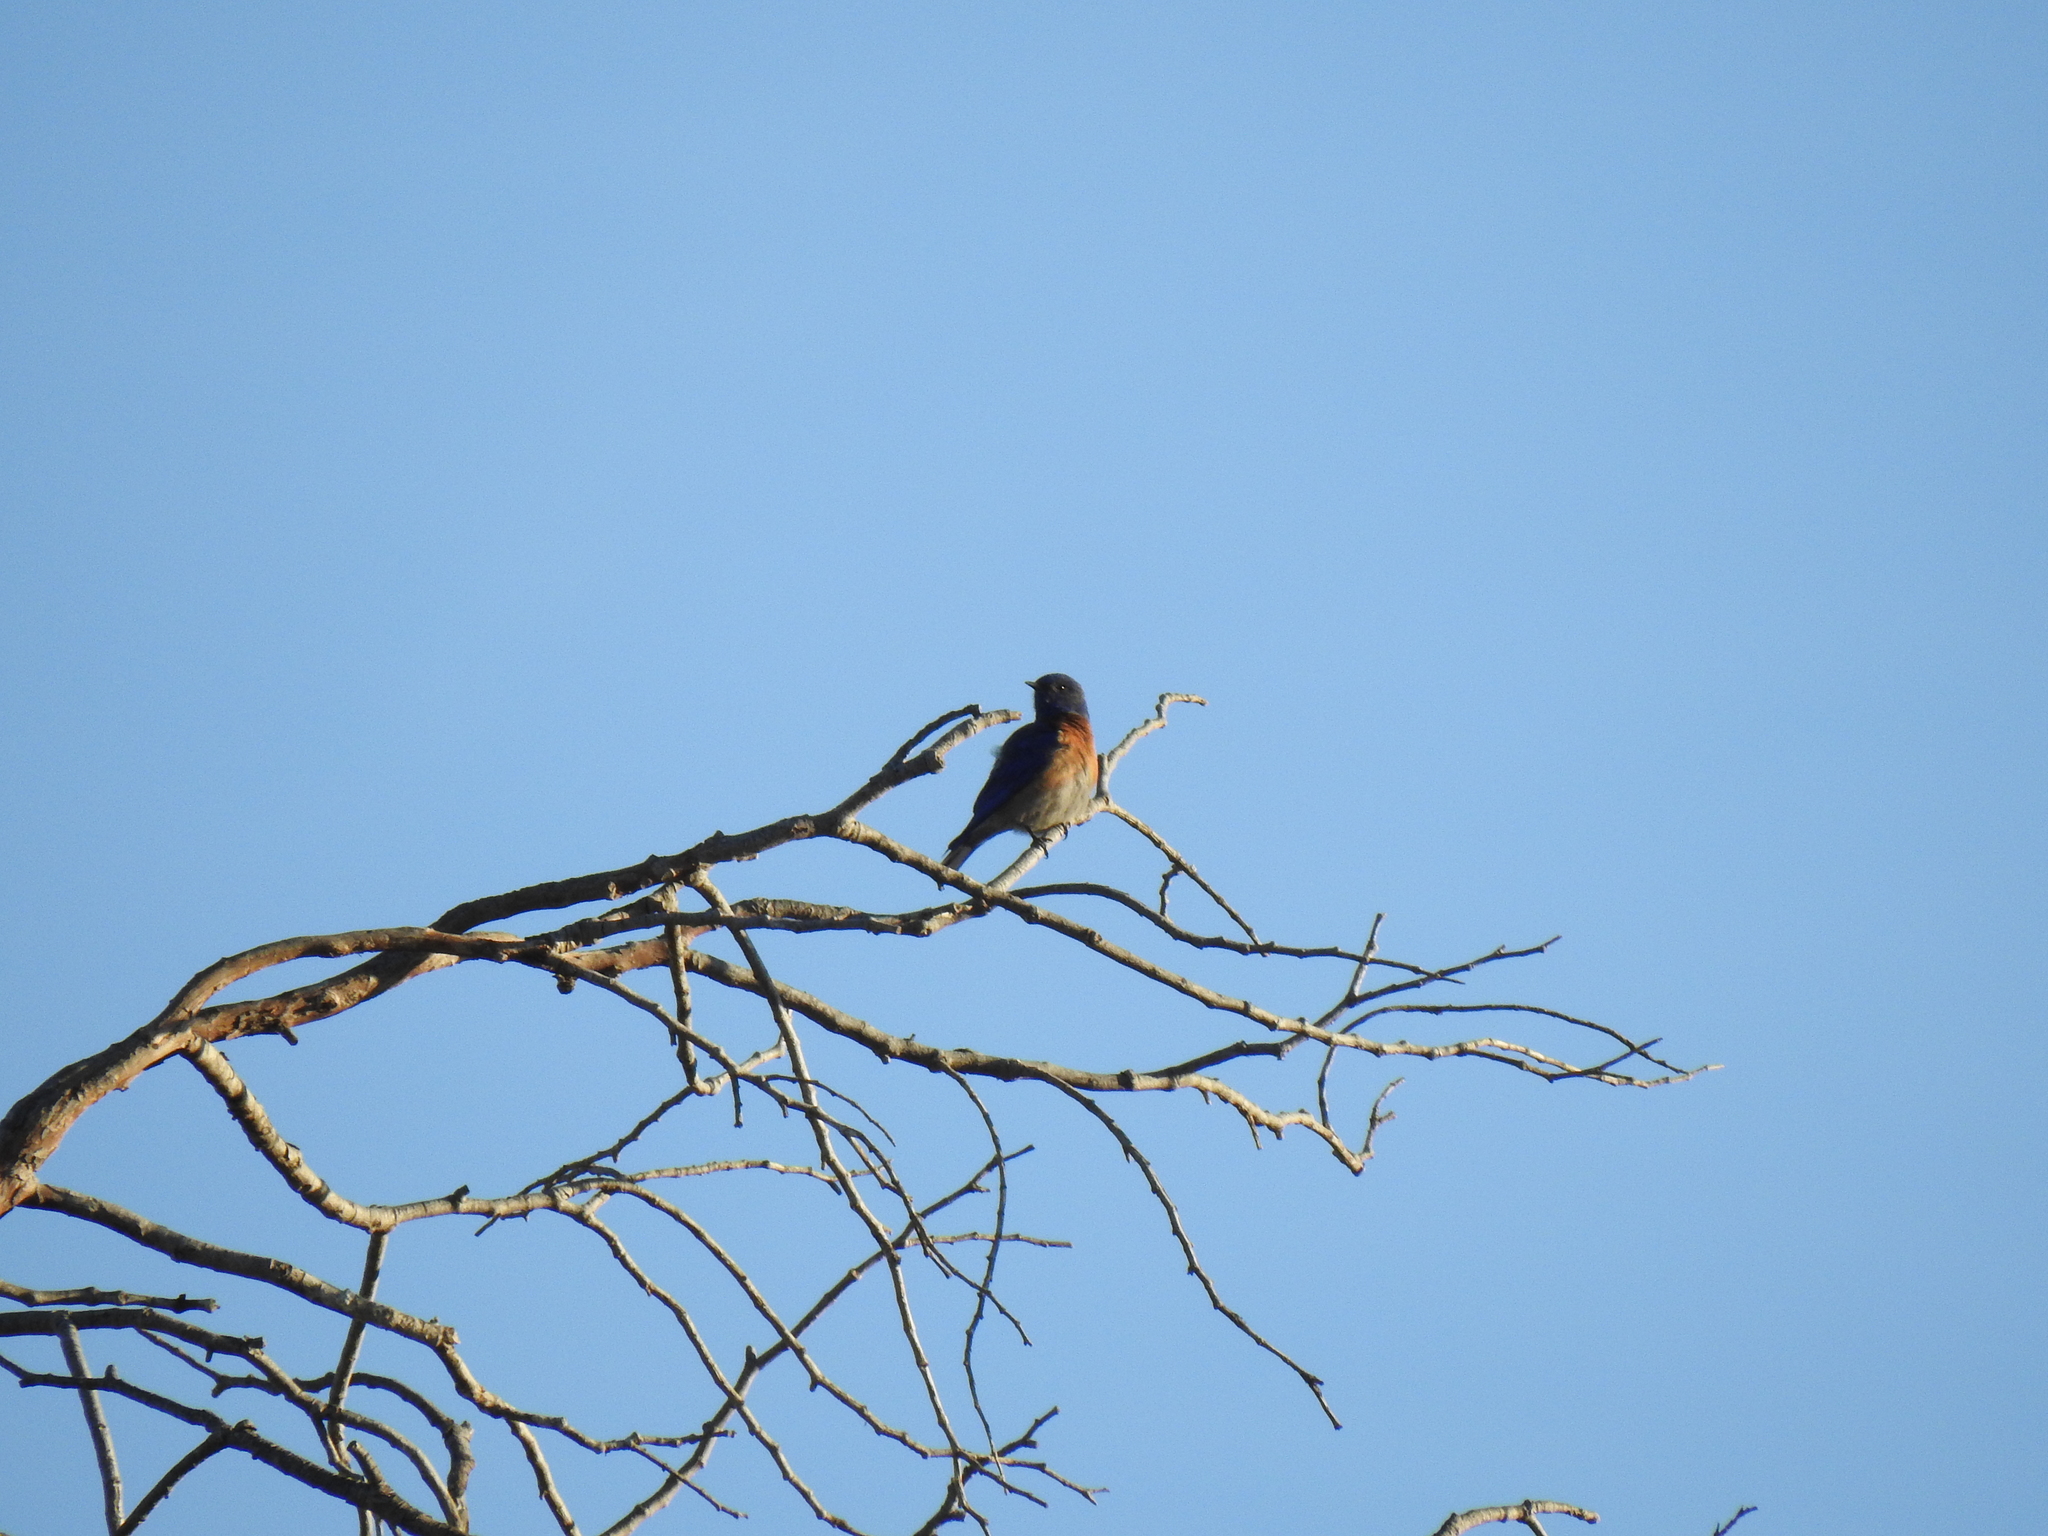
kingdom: Animalia
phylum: Chordata
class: Aves
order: Passeriformes
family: Turdidae
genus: Sialia
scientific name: Sialia mexicana
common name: Western bluebird
